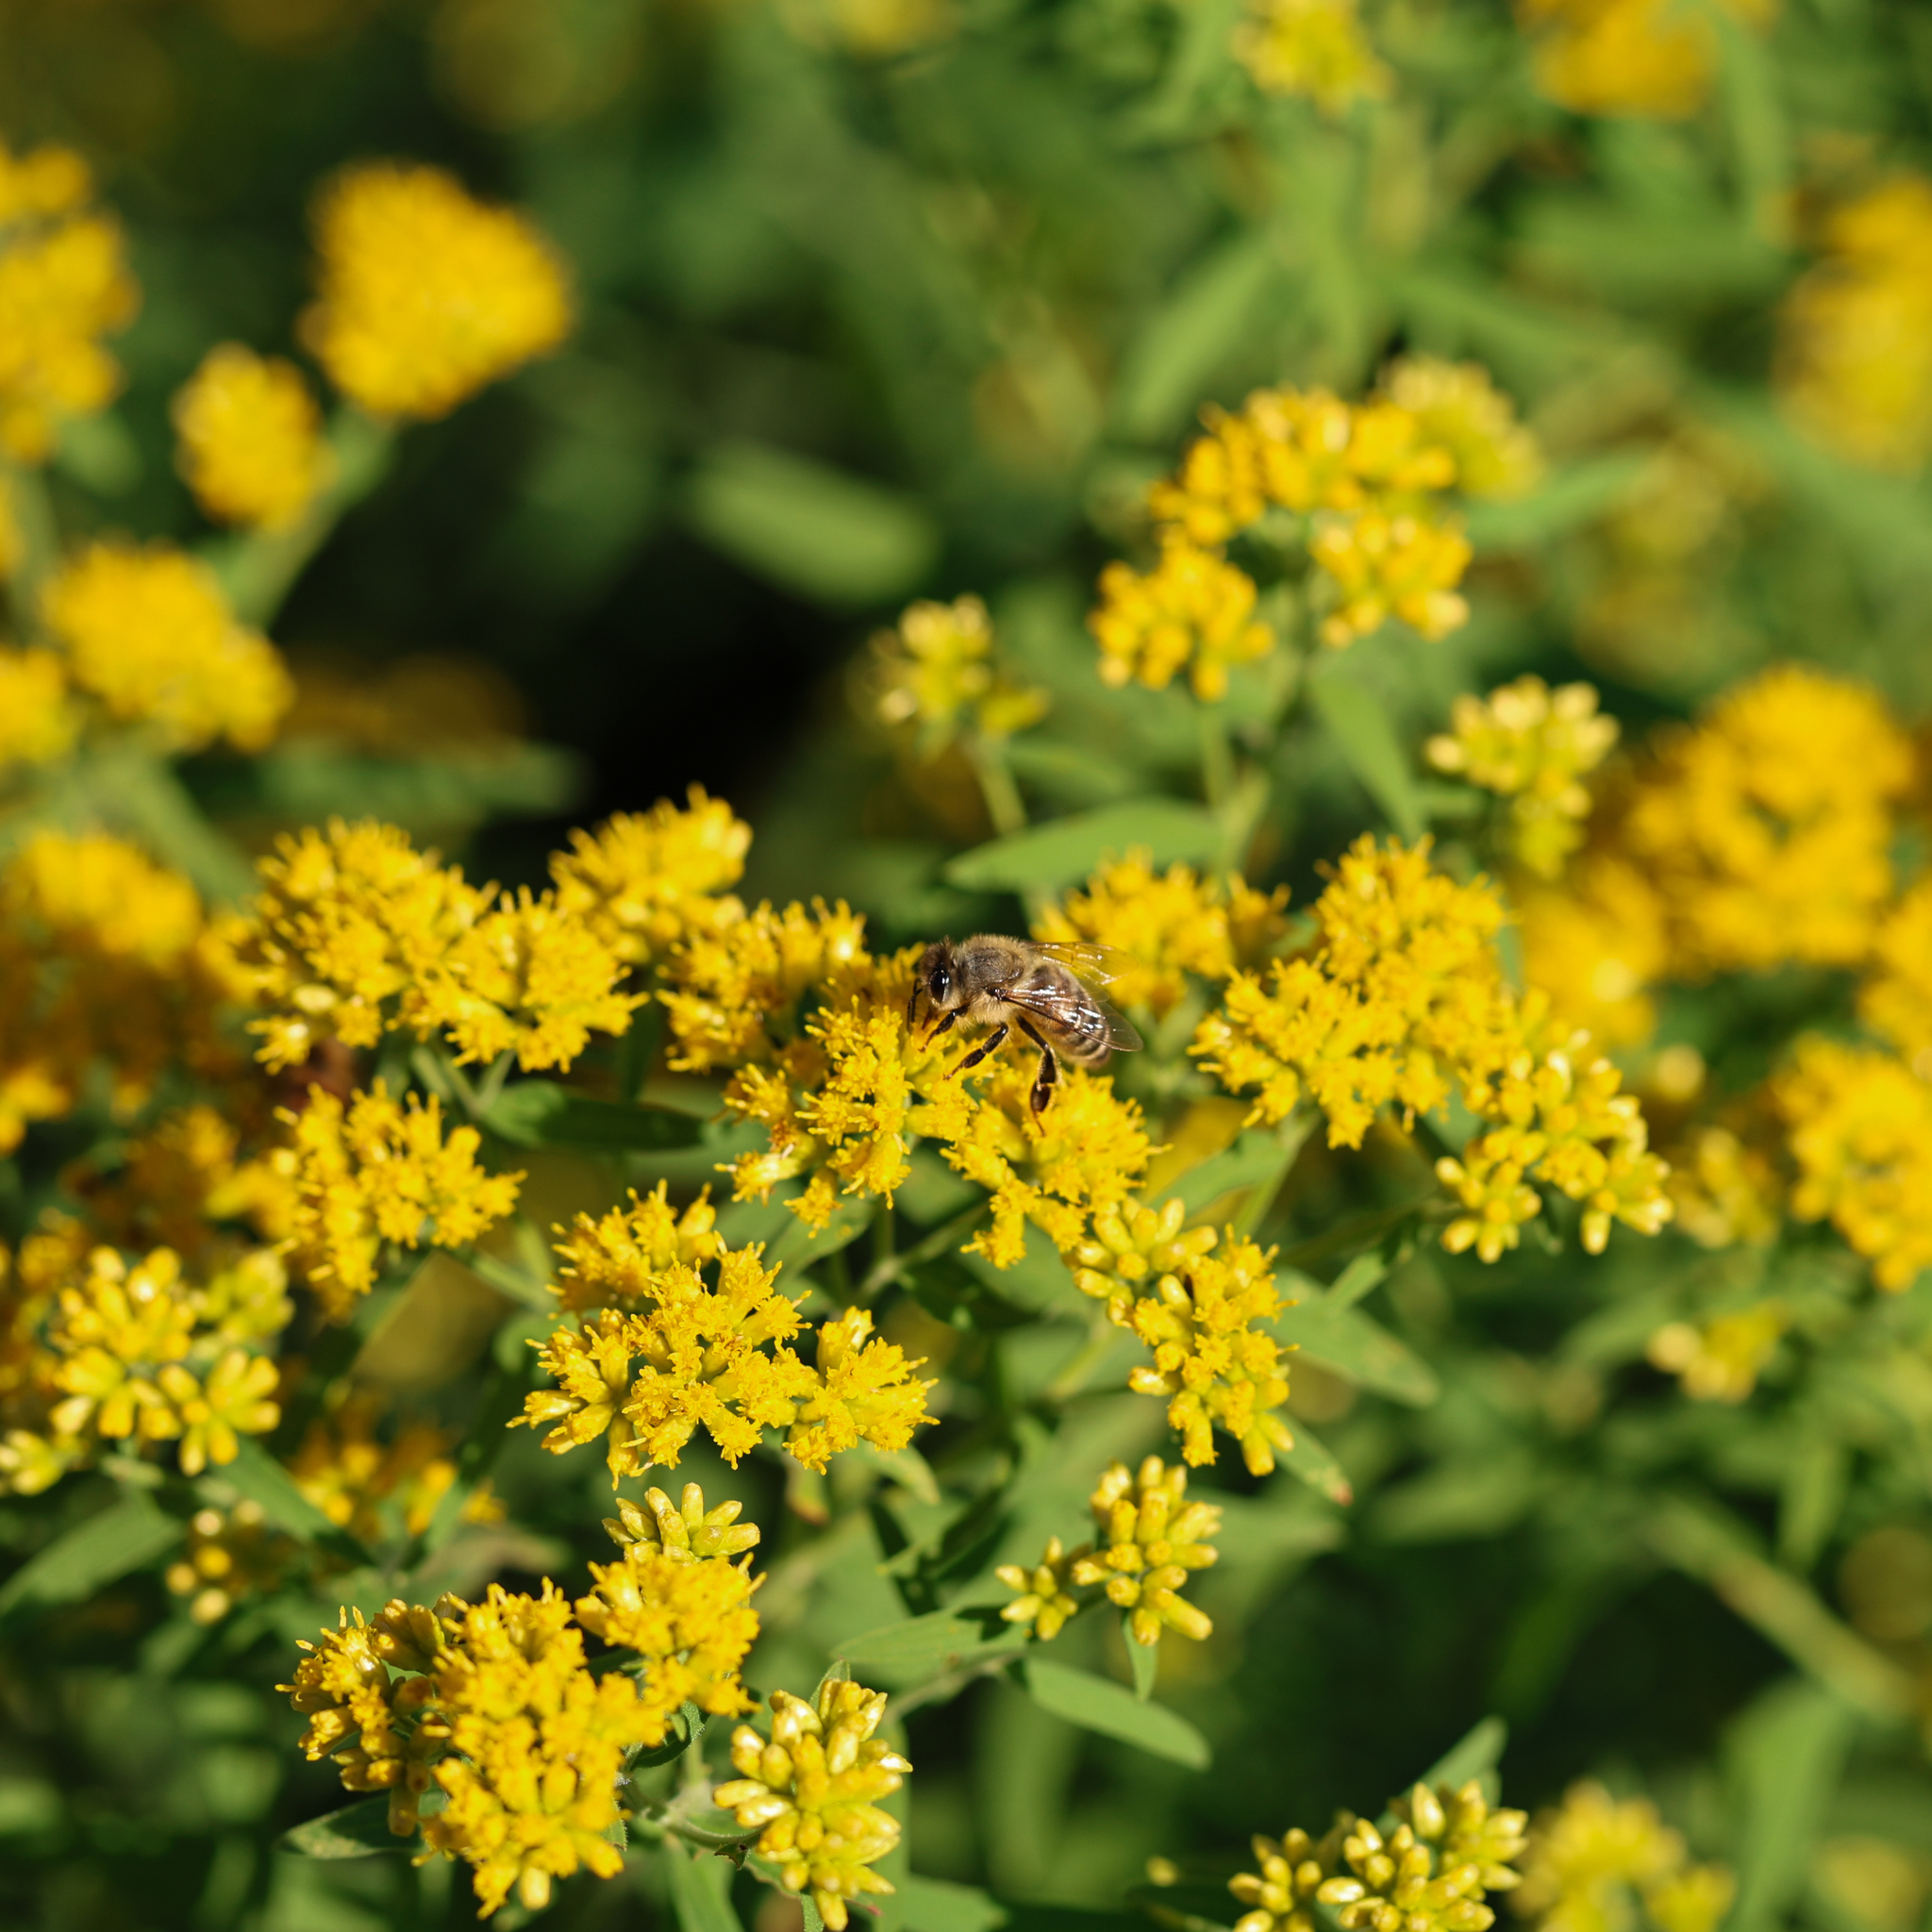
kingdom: Animalia
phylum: Arthropoda
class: Insecta
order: Hymenoptera
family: Apidae
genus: Apis
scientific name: Apis mellifera
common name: Honey bee
